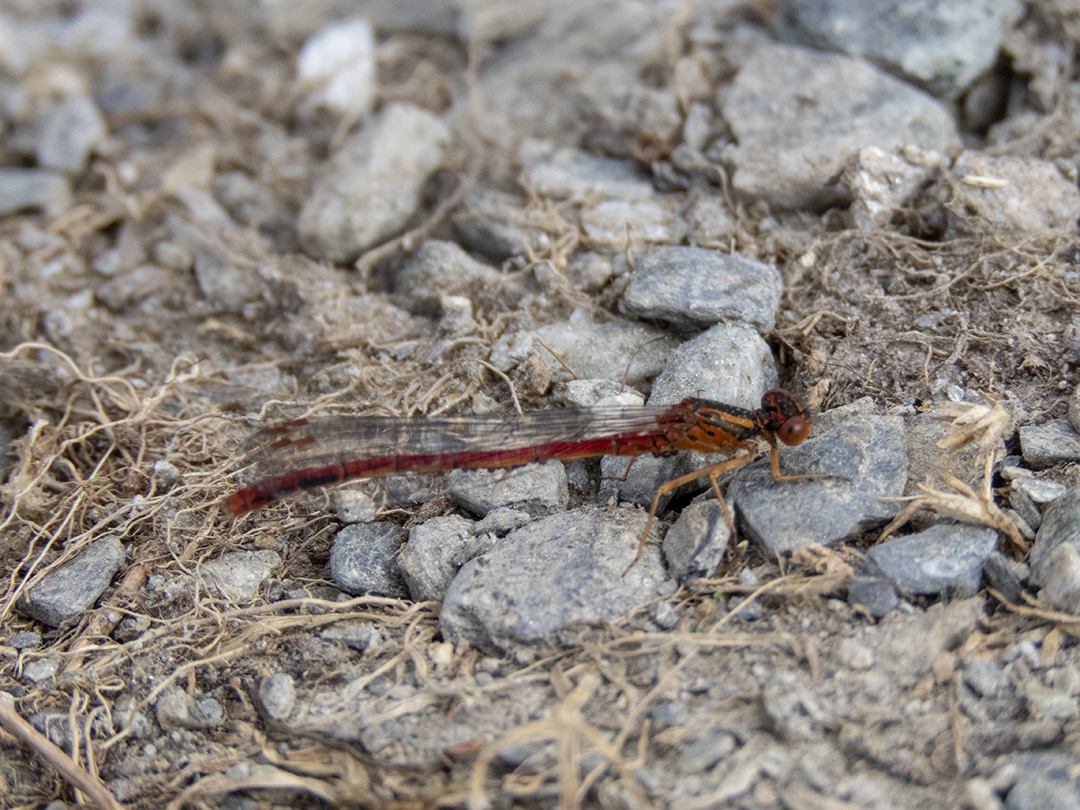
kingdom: Animalia
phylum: Arthropoda
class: Insecta
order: Odonata
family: Coenagrionidae
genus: Xanthocnemis
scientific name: Xanthocnemis zealandica
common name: Common redcoat damselfly
